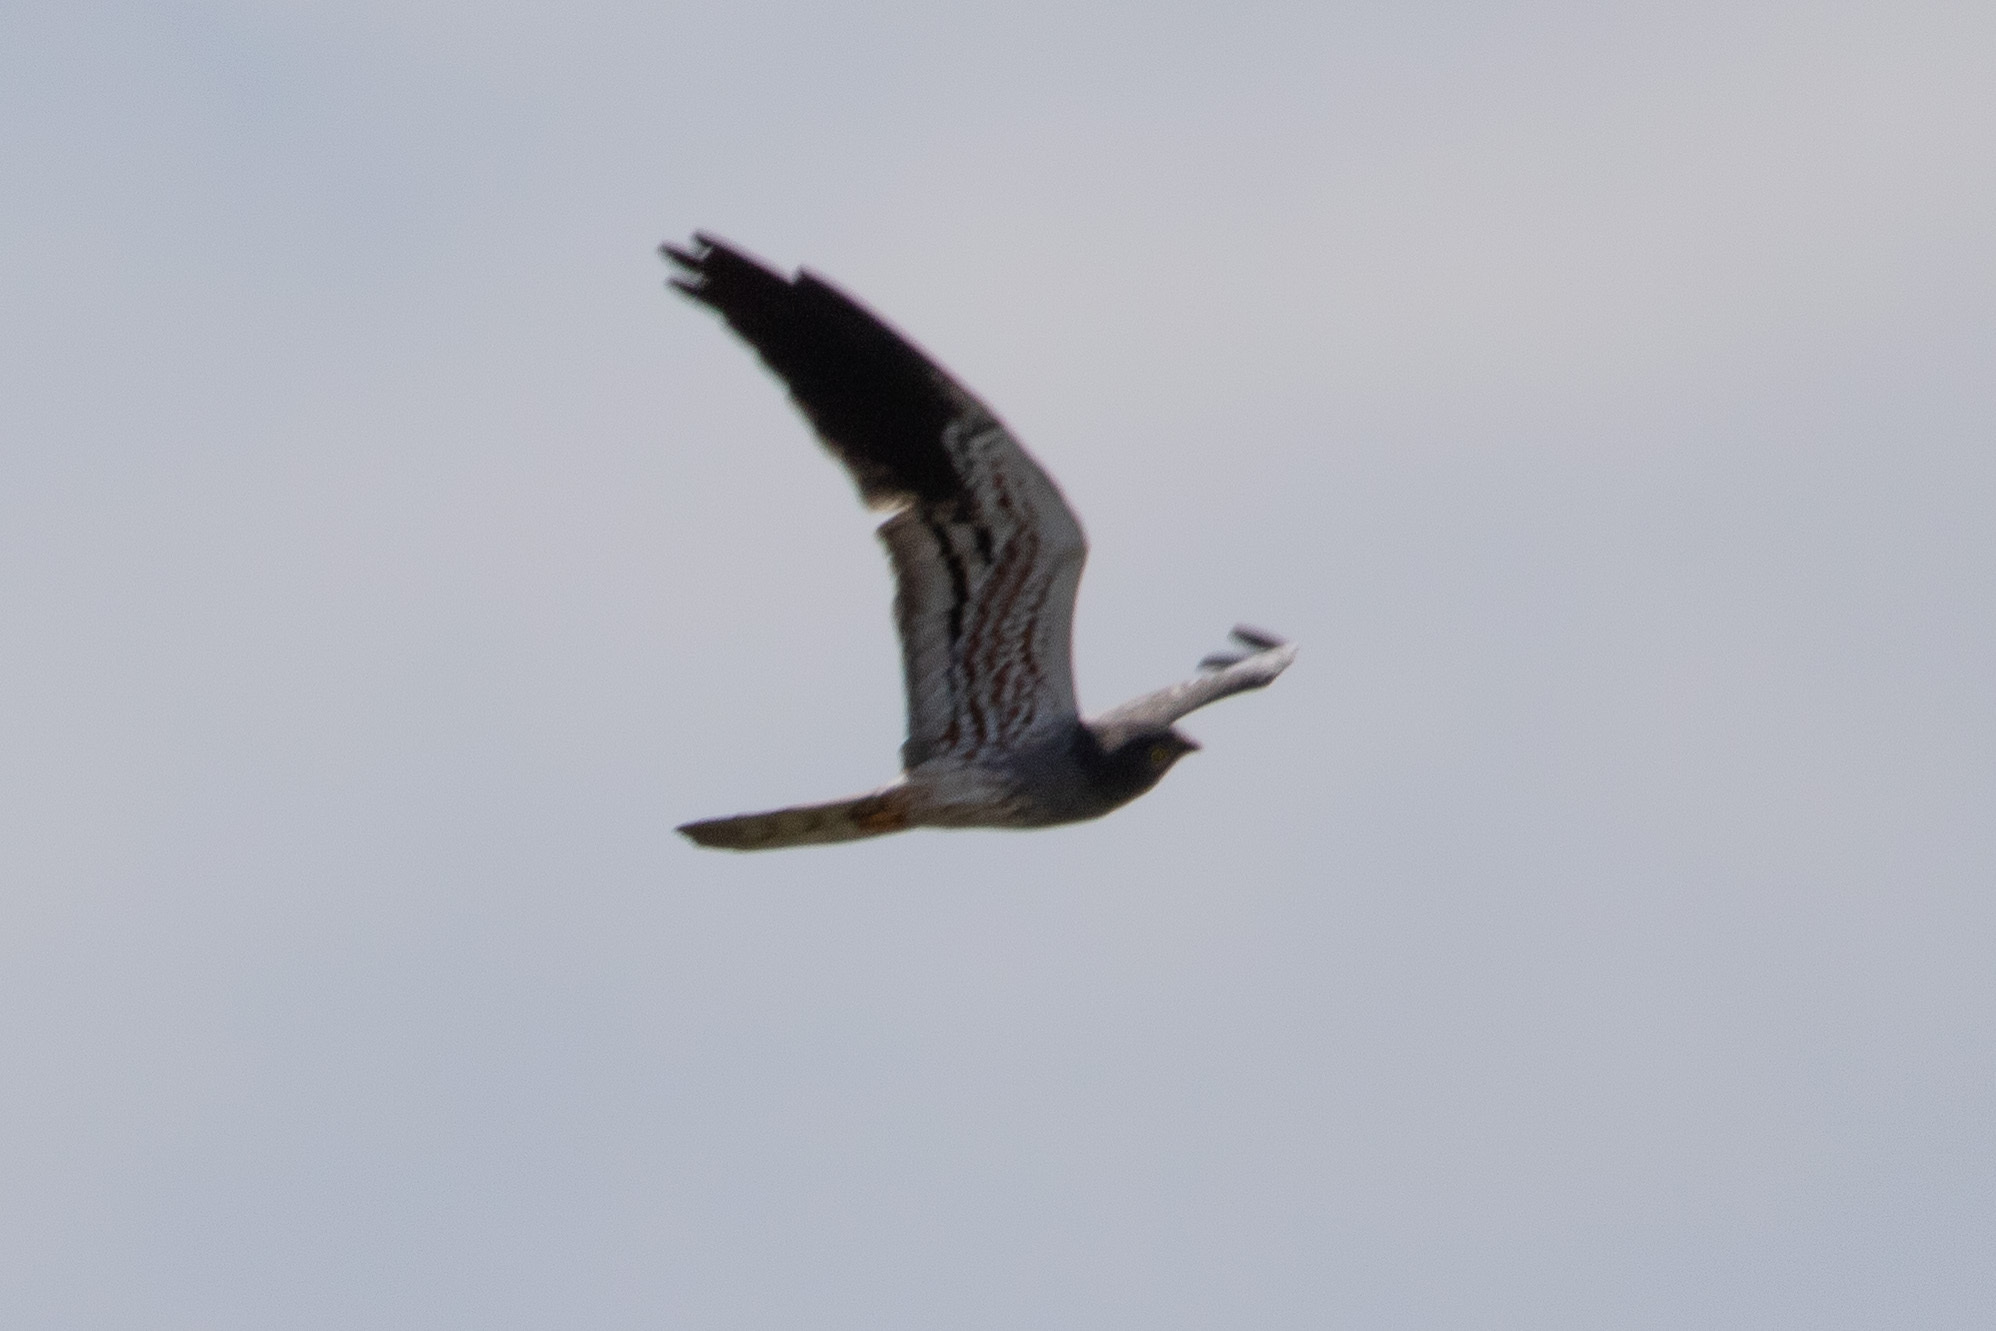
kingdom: Animalia
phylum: Chordata
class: Aves
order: Accipitriformes
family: Accipitridae
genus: Circus
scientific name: Circus pygargus
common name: Montagu's harrier
